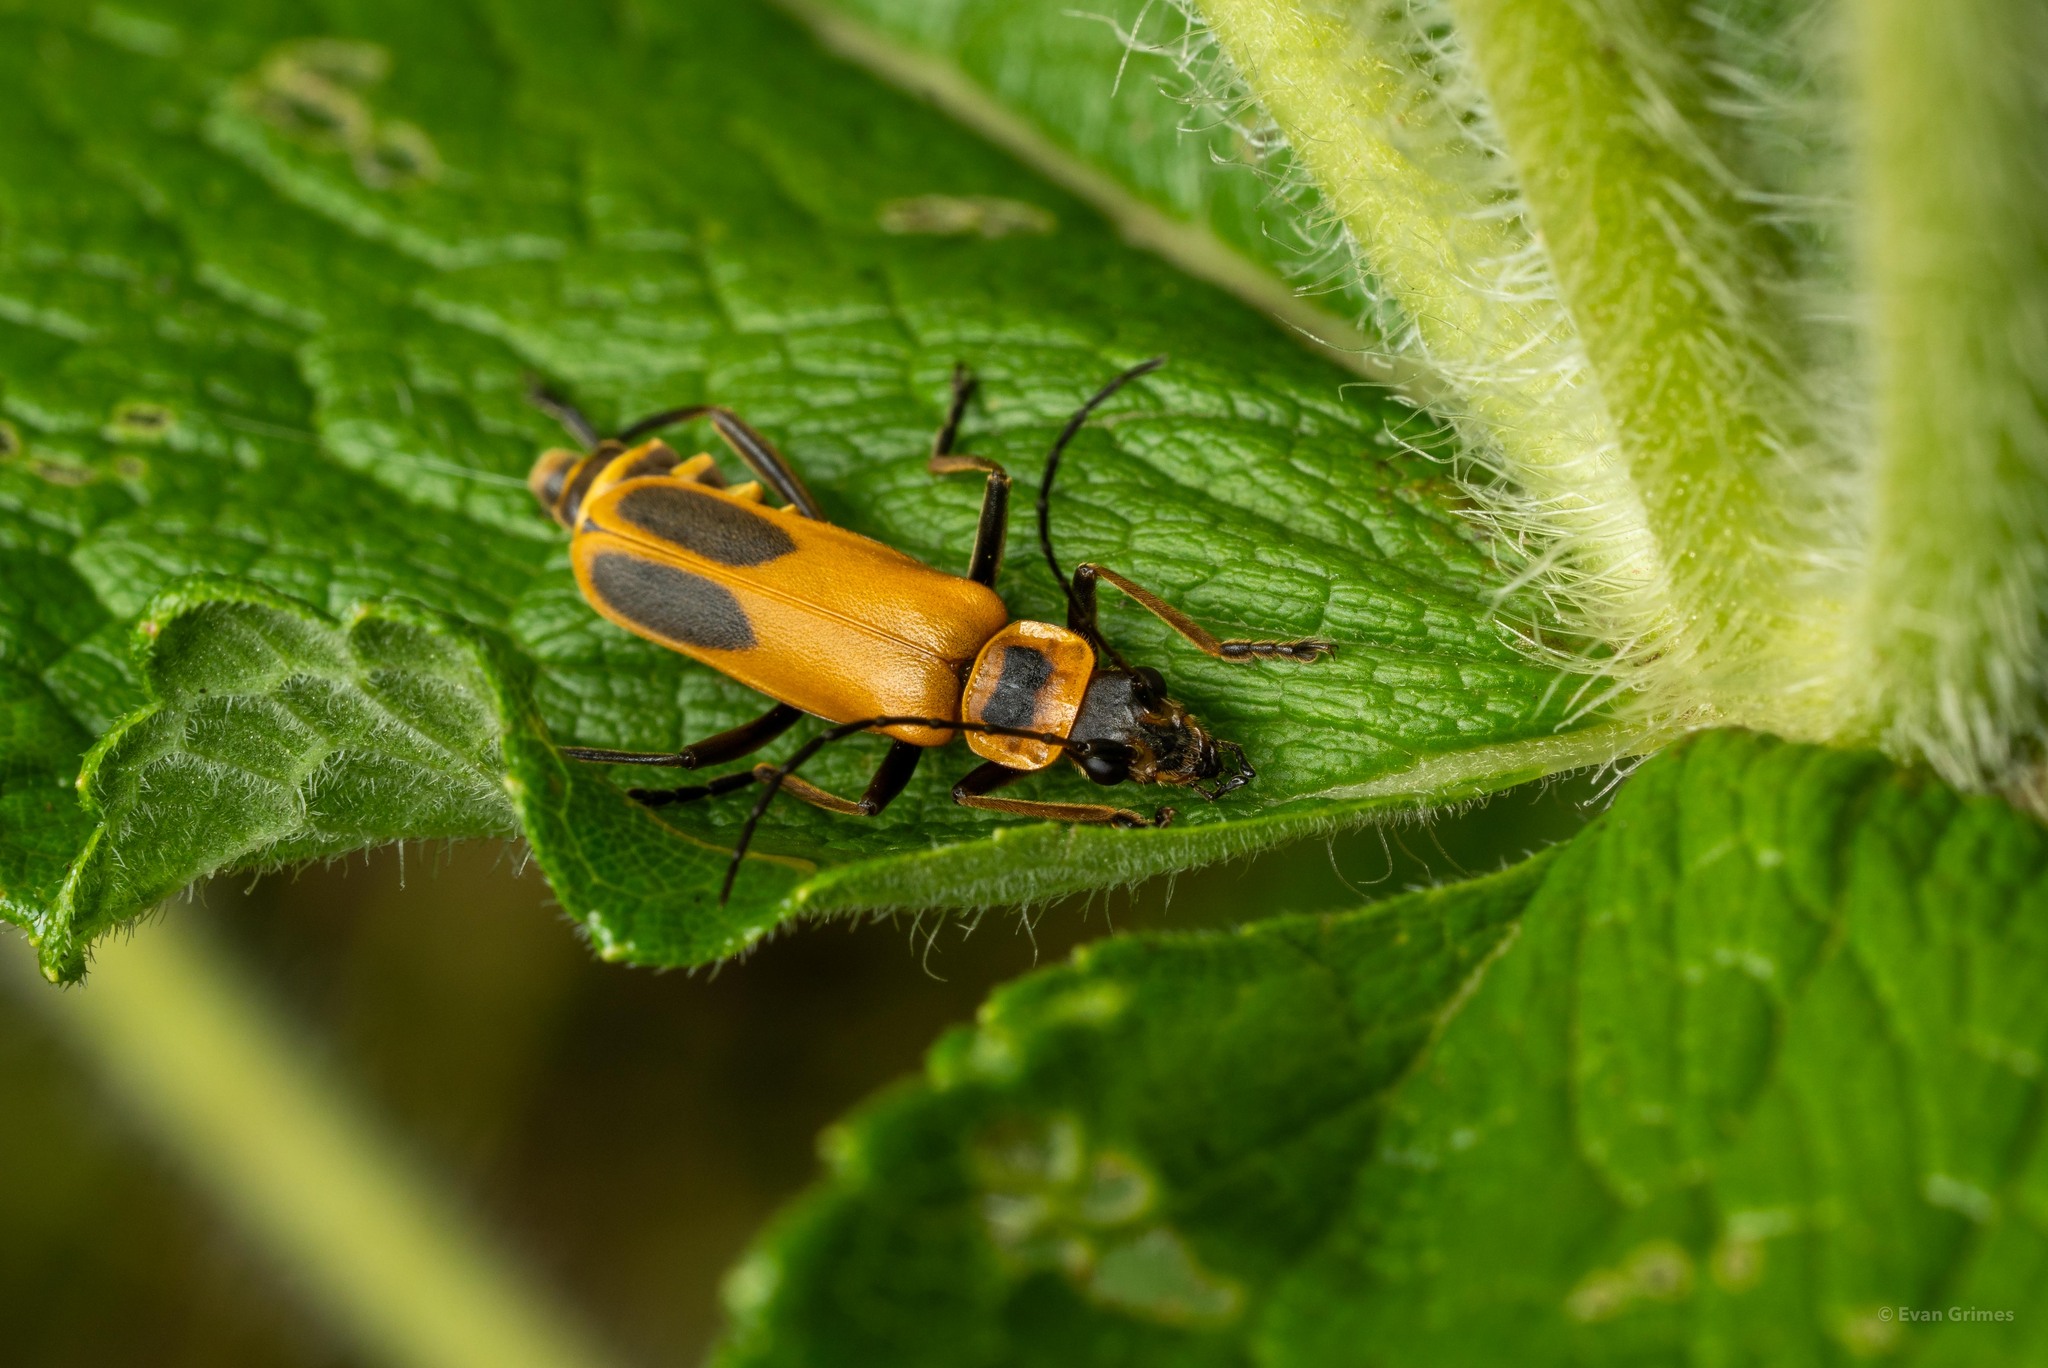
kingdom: Animalia
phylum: Arthropoda
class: Insecta
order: Coleoptera
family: Cantharidae
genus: Chauliognathus
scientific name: Chauliognathus pensylvanicus
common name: Goldenrod soldier beetle
